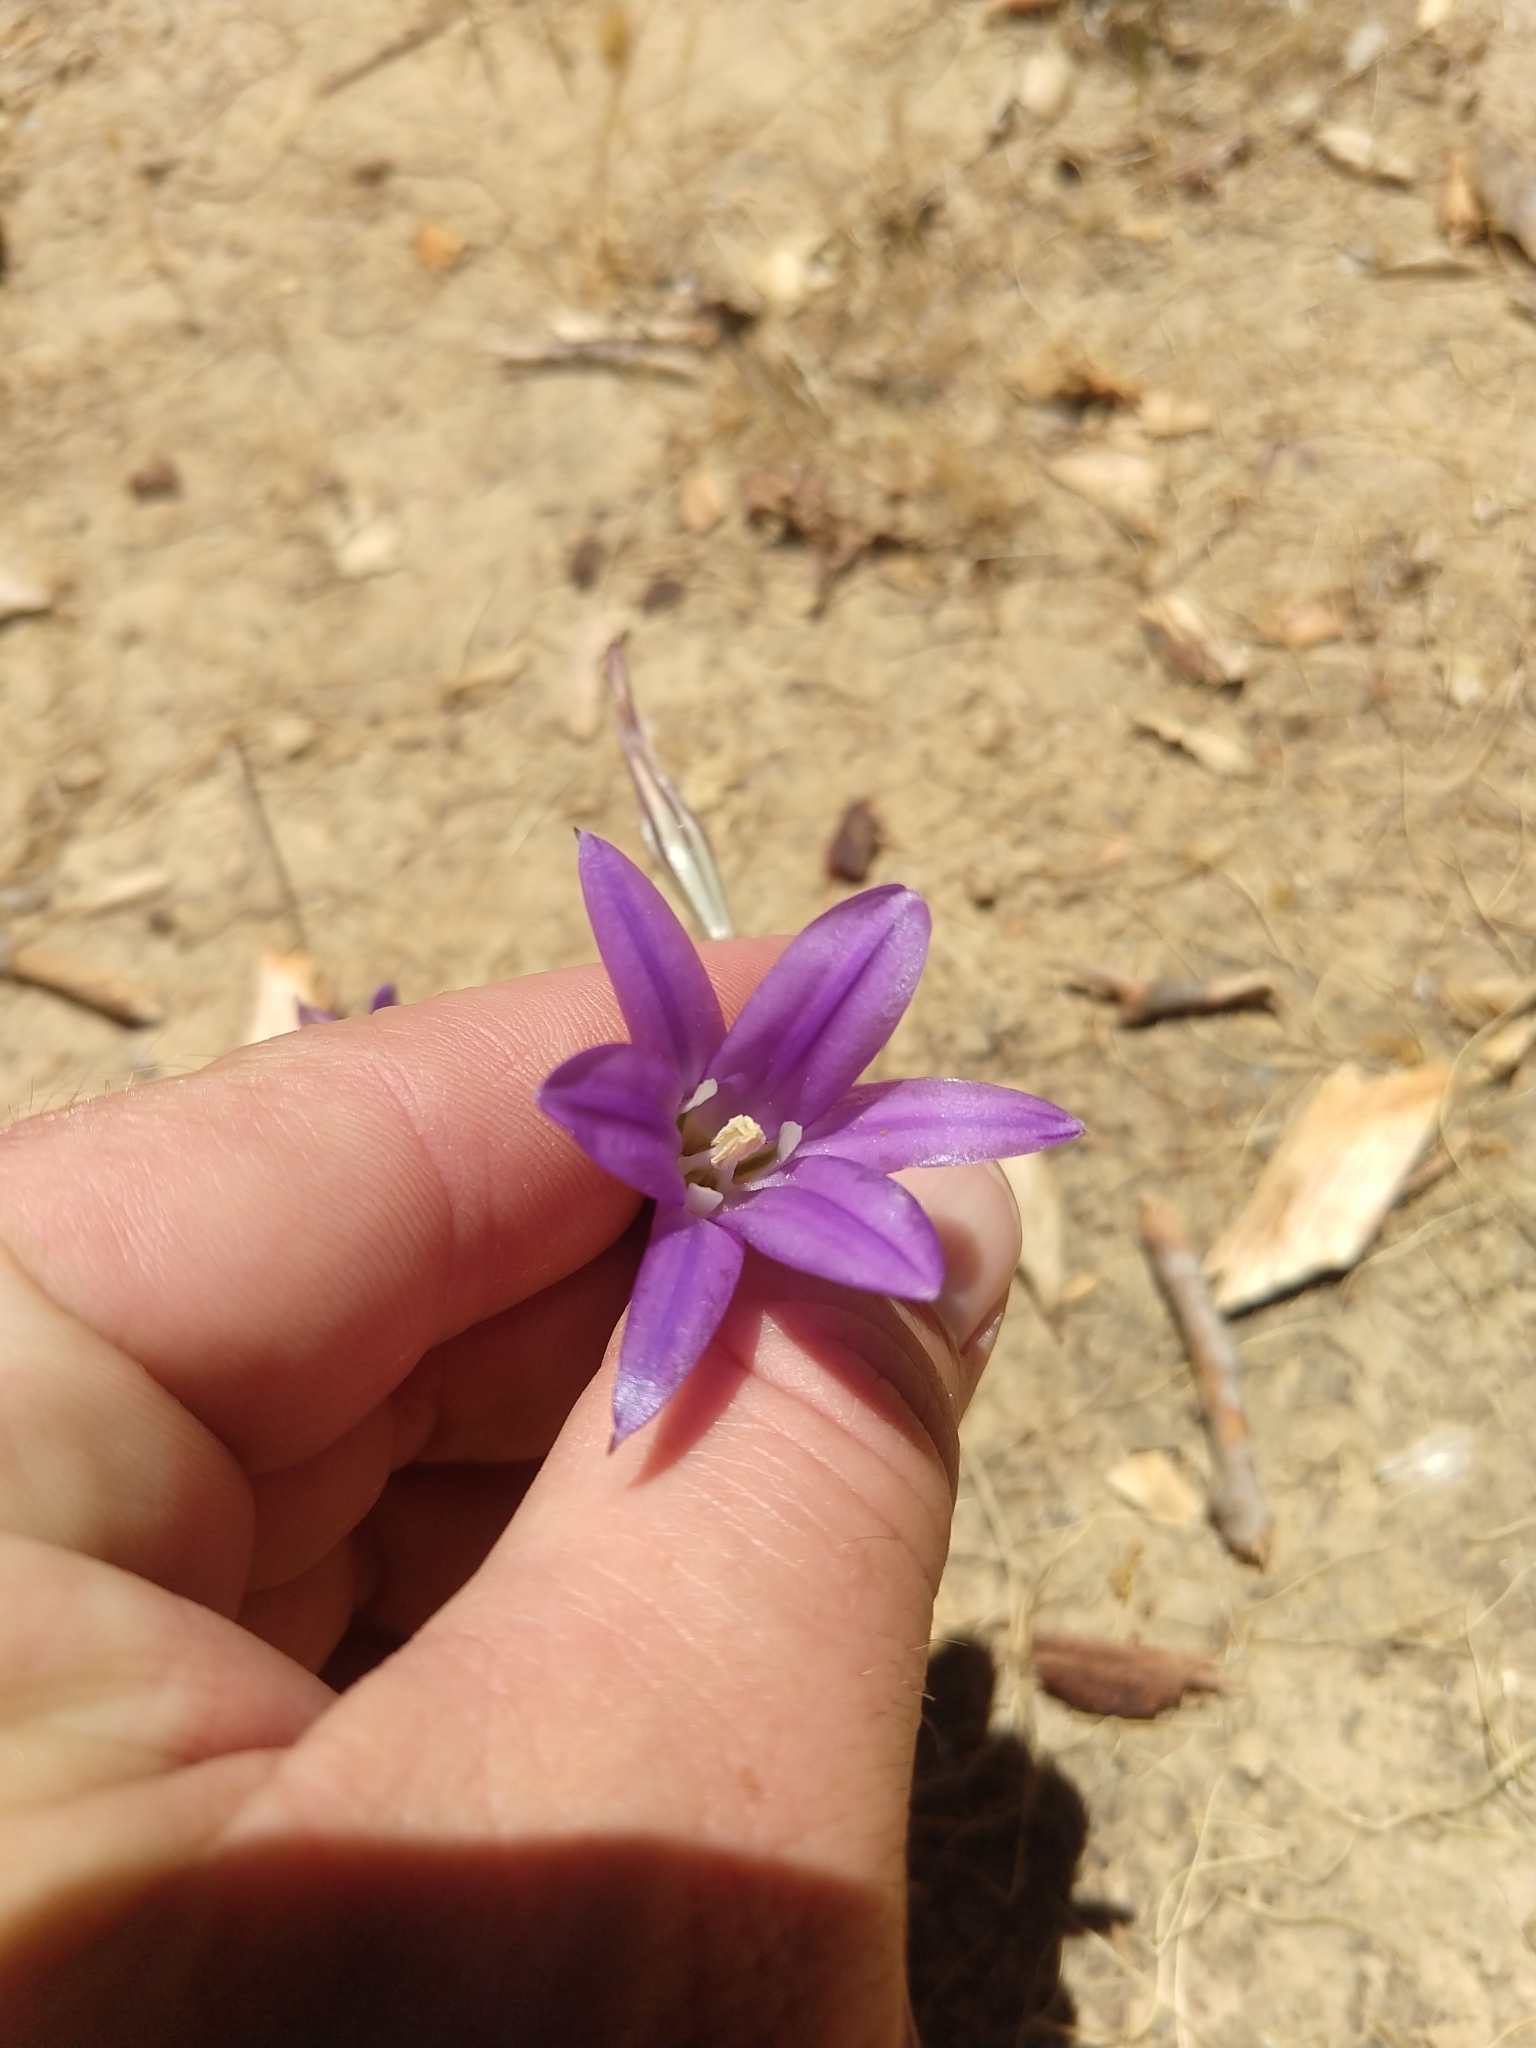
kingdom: Plantae
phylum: Tracheophyta
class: Liliopsida
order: Asparagales
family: Asparagaceae
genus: Brodiaea
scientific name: Brodiaea elegans
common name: Elegant cluster-lily
